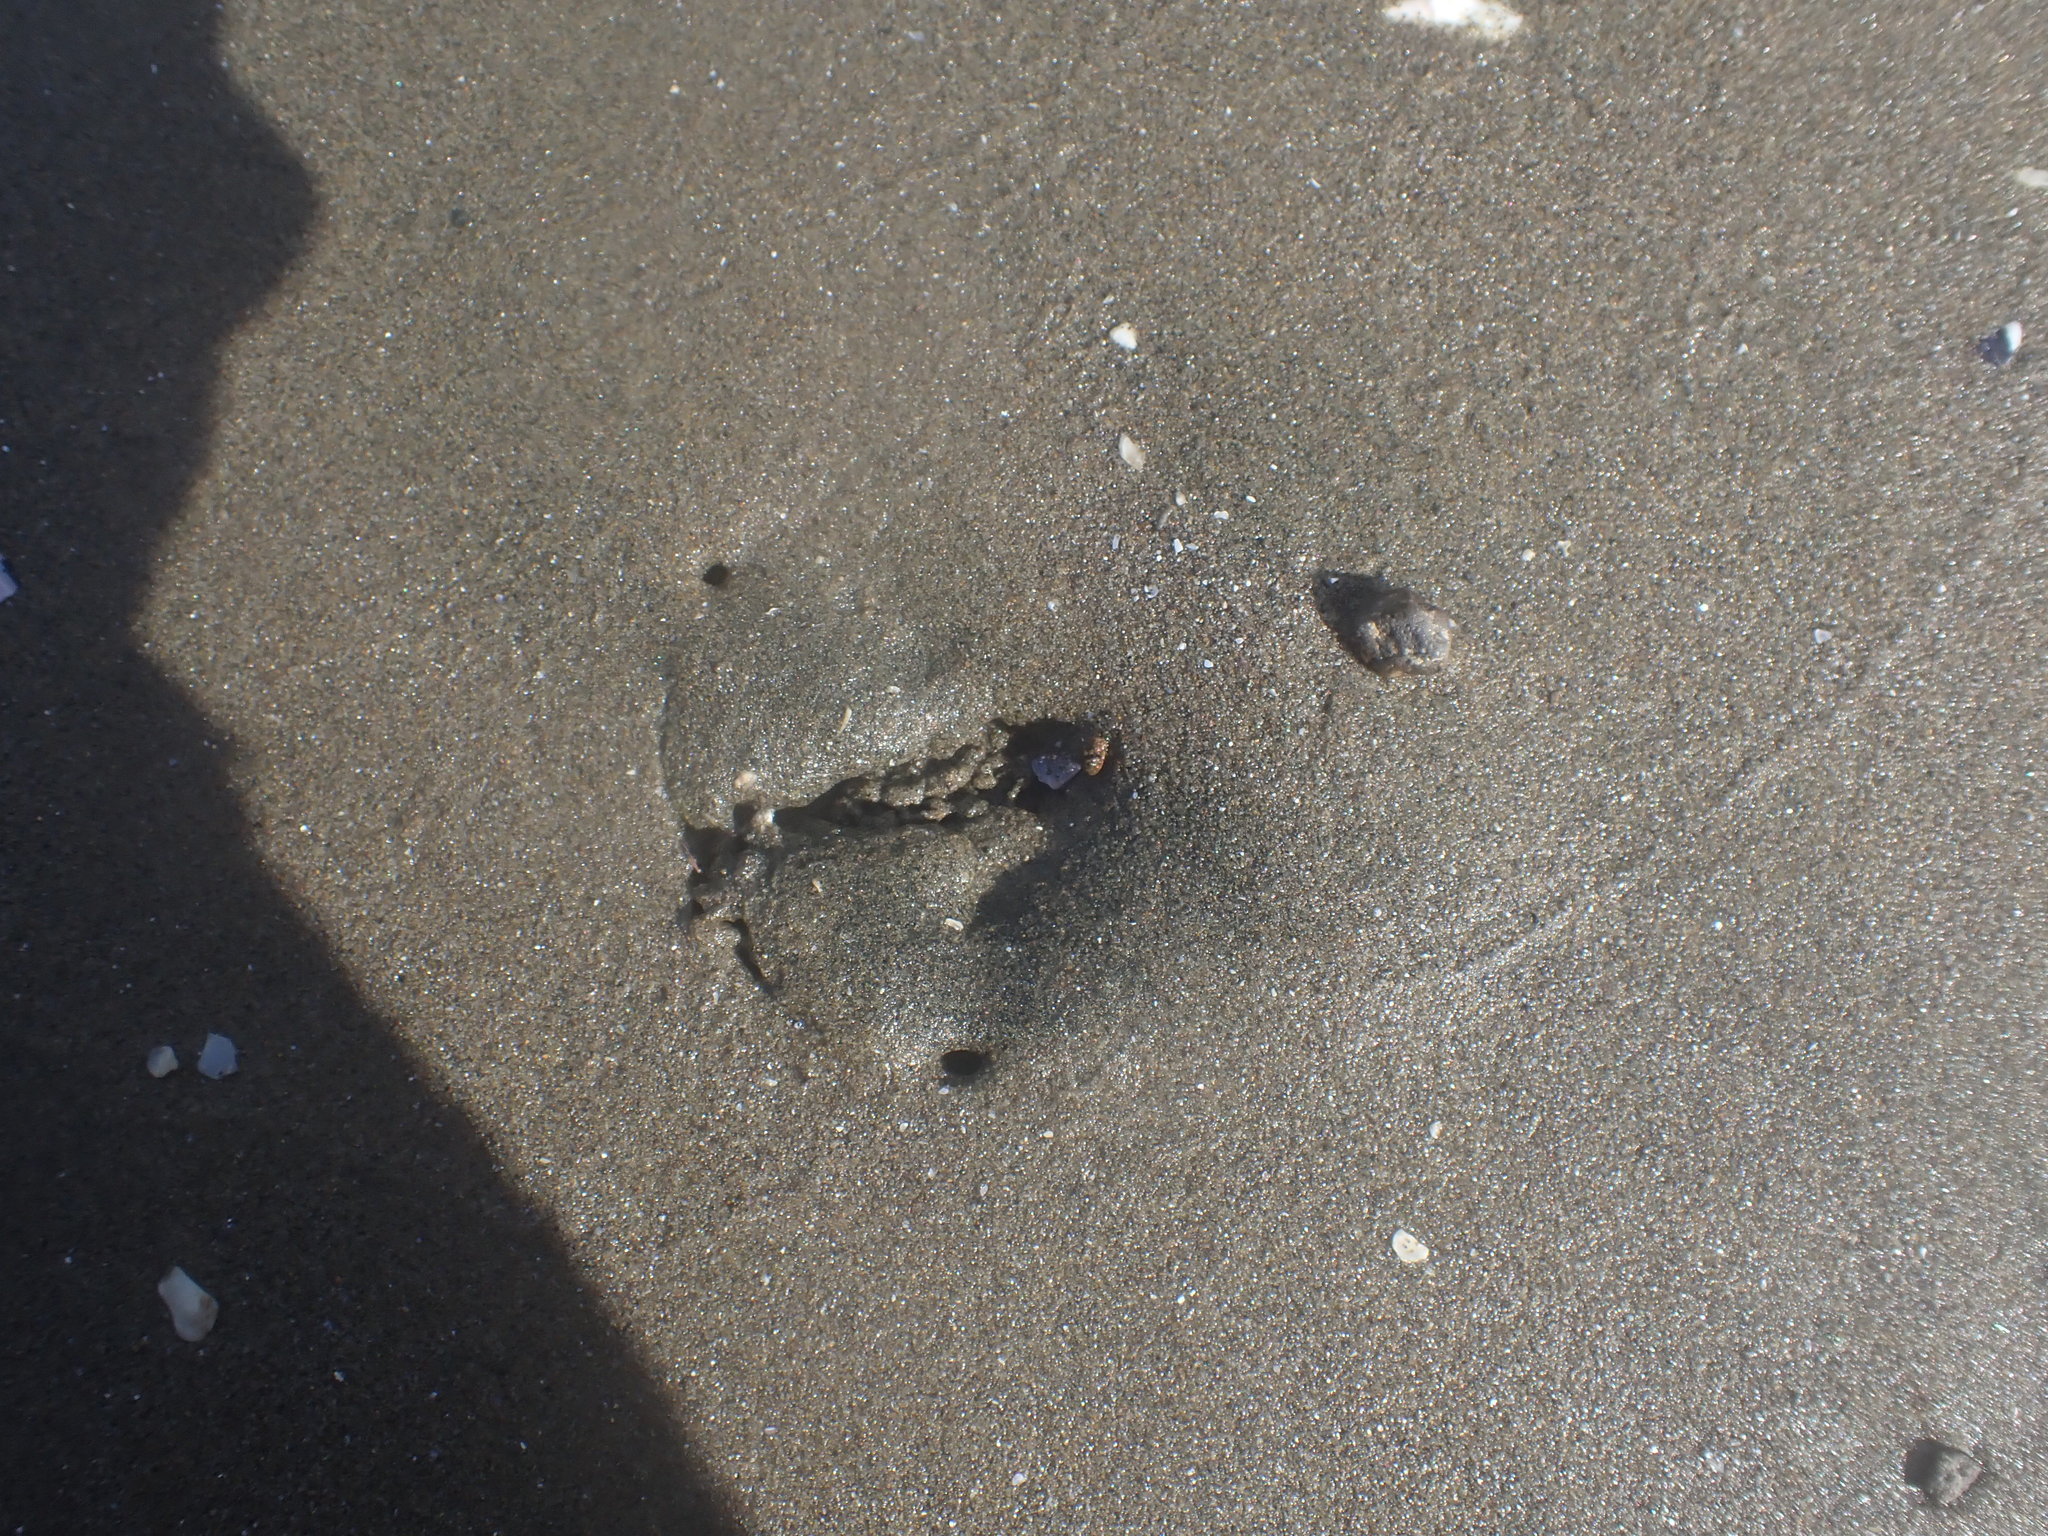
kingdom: Animalia
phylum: Echinodermata
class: Echinoidea
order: Clypeasteroida
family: Clypeasteridae
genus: Fellaster
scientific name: Fellaster zelandiae
